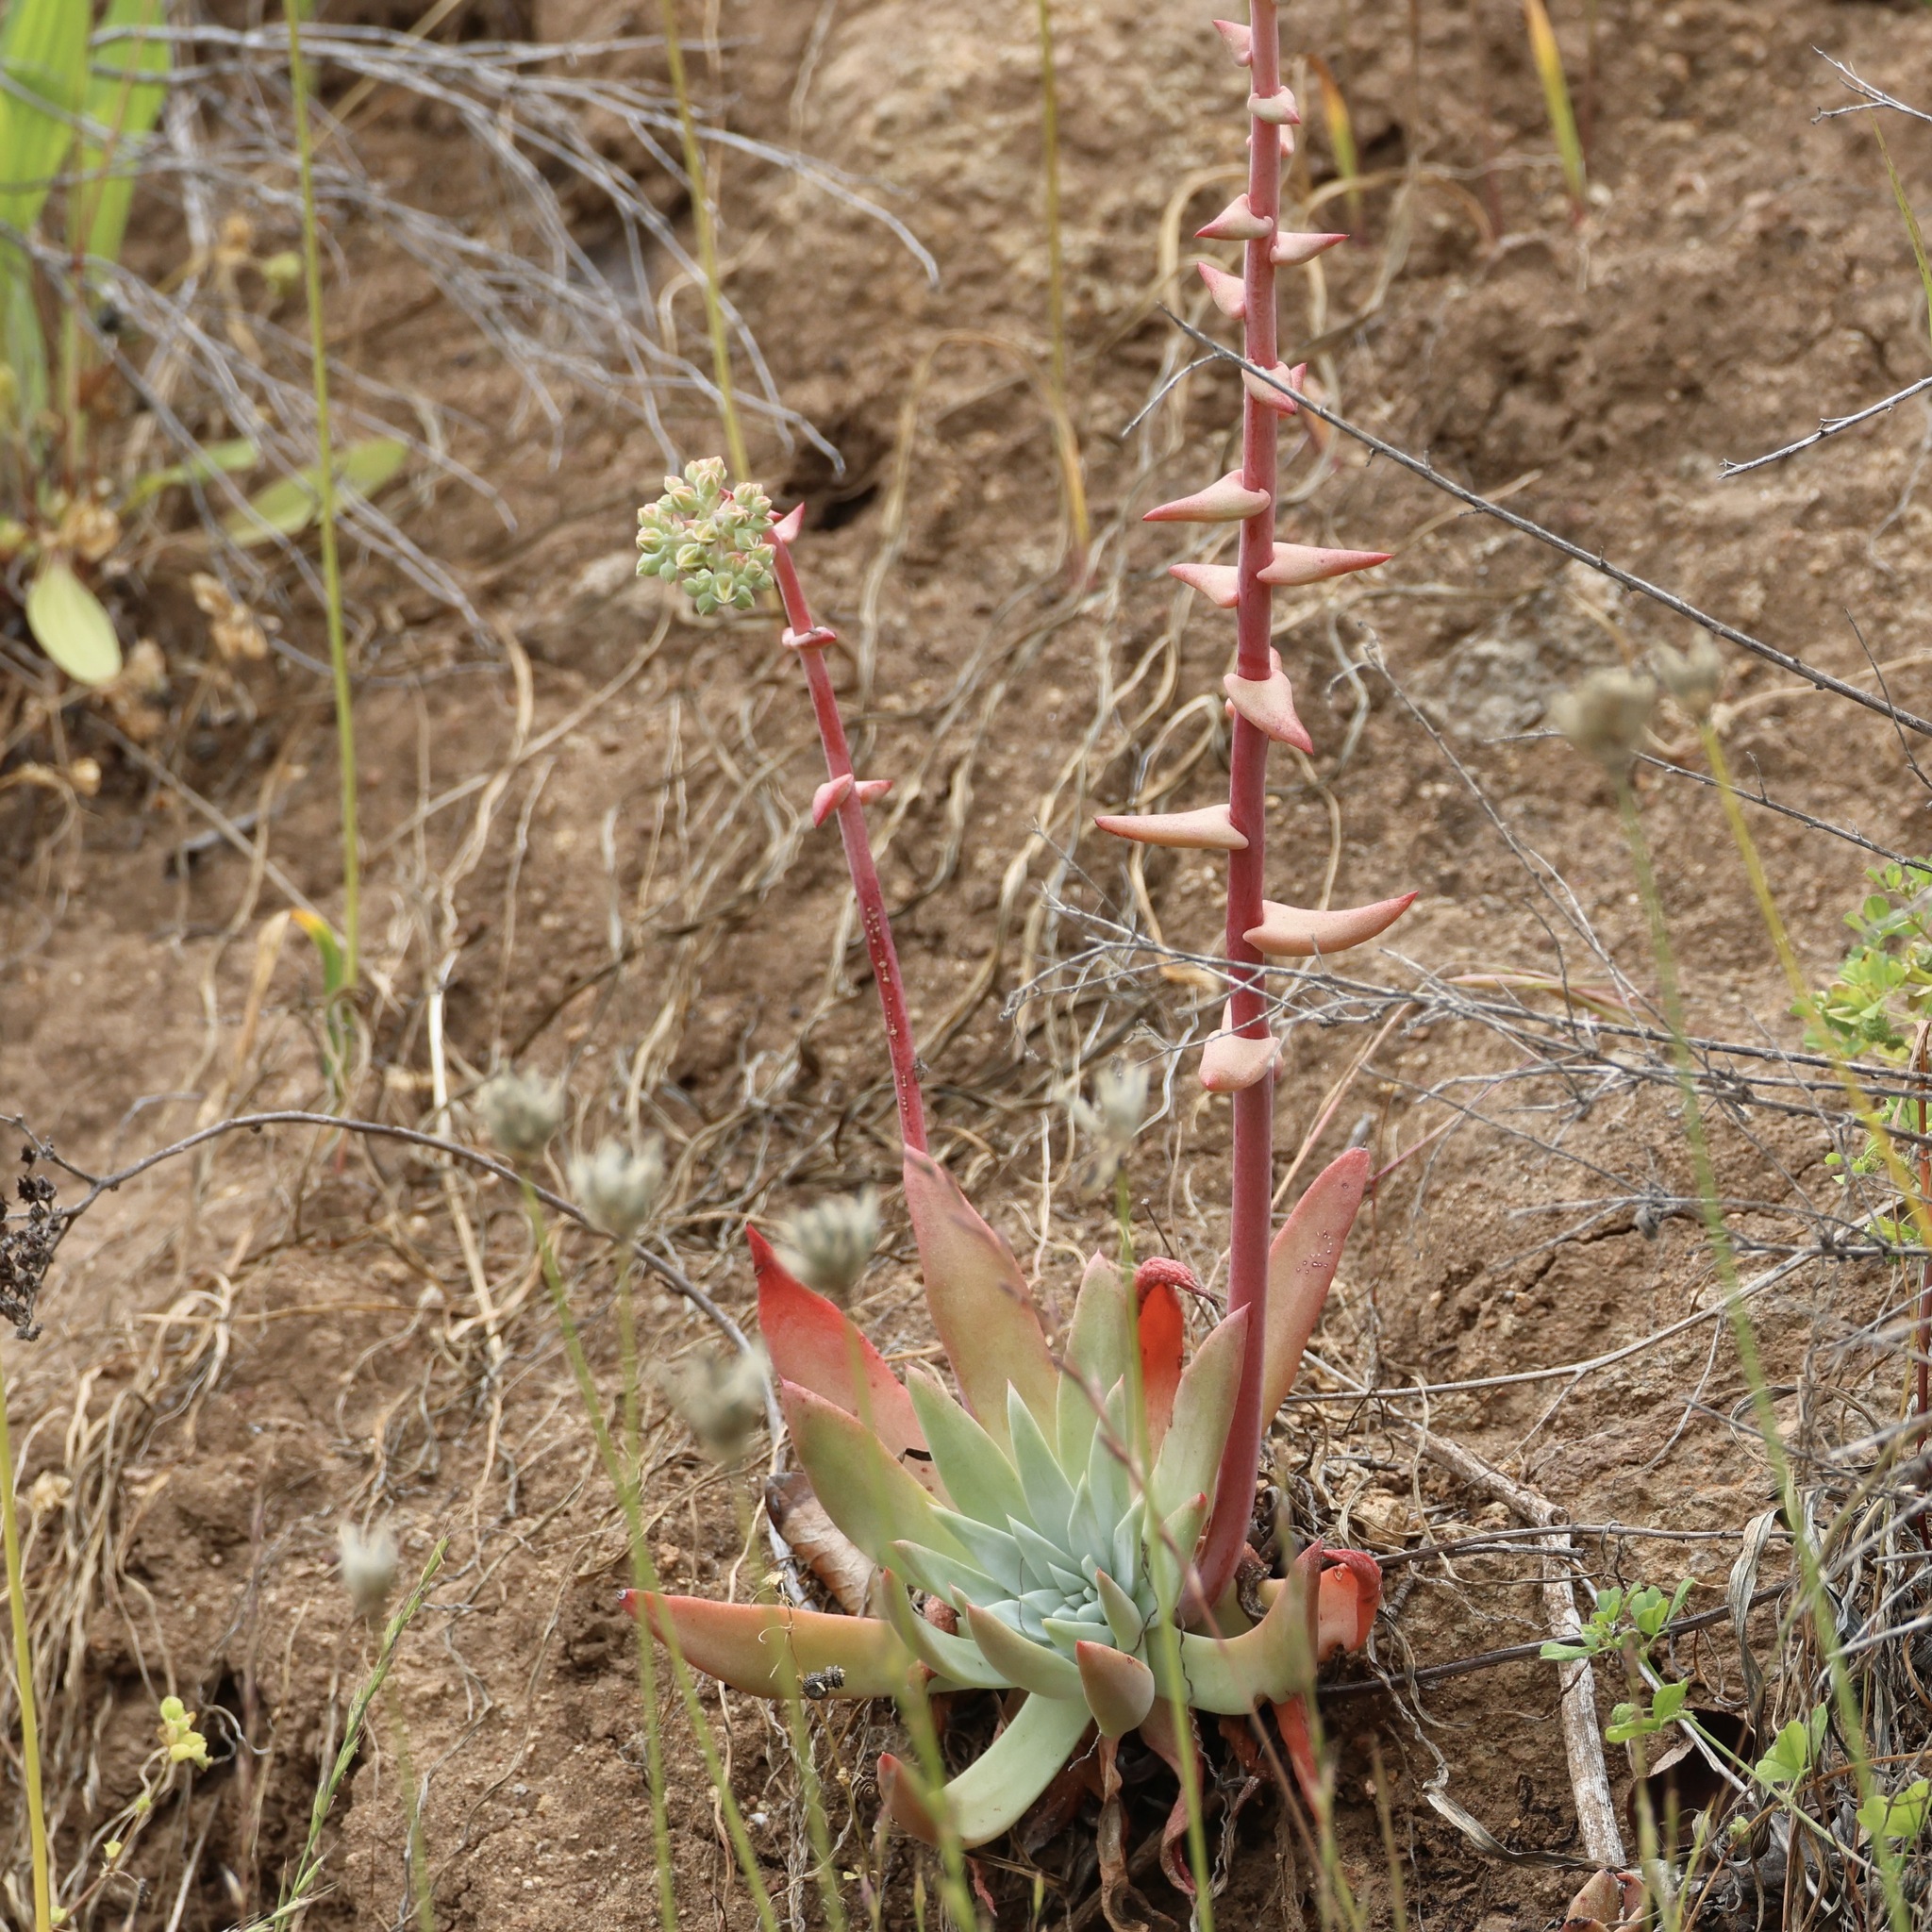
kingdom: Plantae
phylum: Tracheophyta
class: Magnoliopsida
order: Saxifragales
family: Crassulaceae
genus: Dudleya
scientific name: Dudleya greenei
